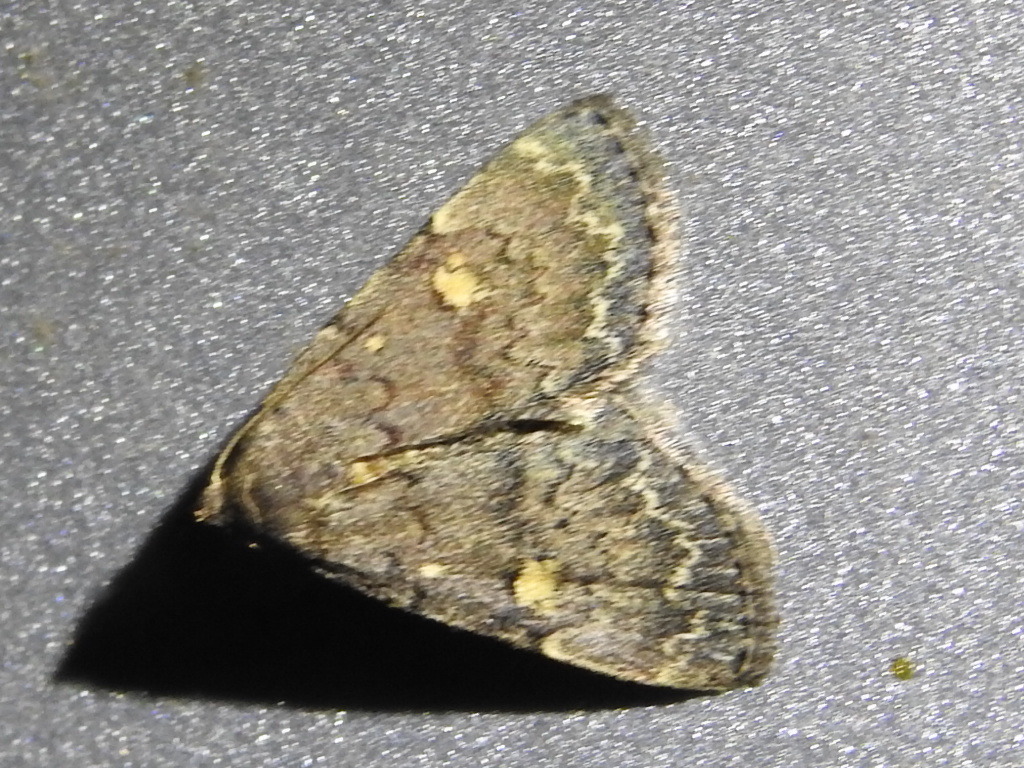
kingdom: Animalia
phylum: Arthropoda
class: Insecta
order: Lepidoptera
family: Erebidae
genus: Idia
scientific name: Idia aemula
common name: Common idia moth
